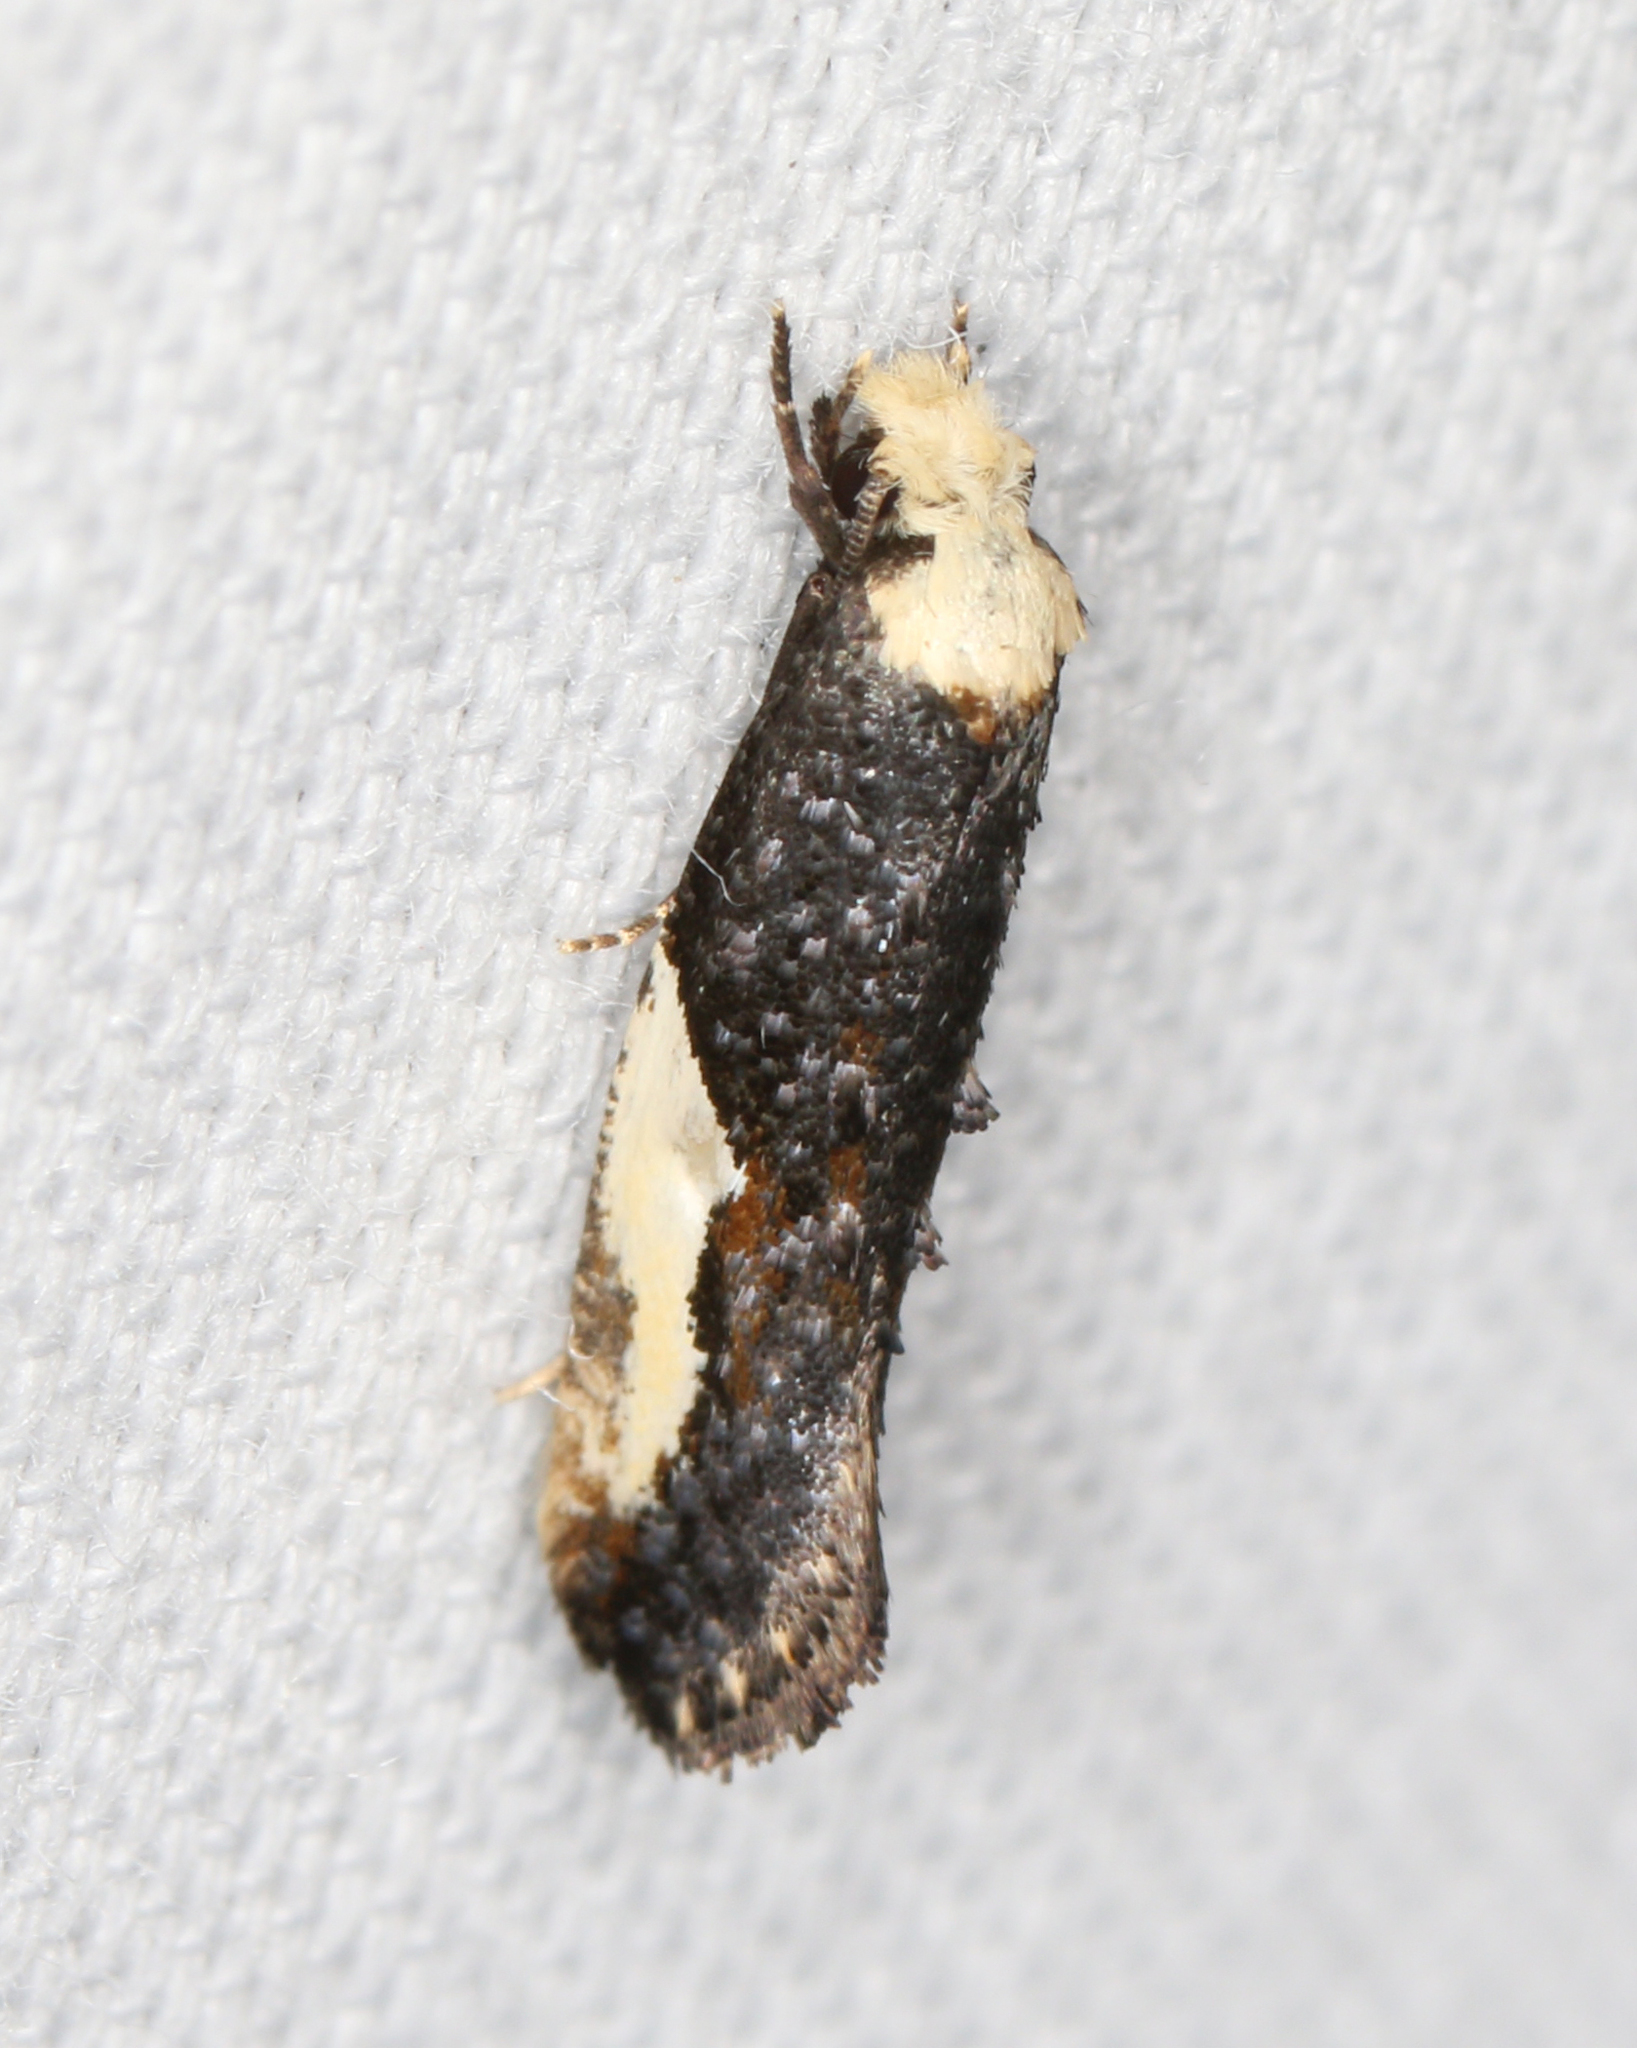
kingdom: Animalia
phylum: Arthropoda
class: Insecta
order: Lepidoptera
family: Tineidae
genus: Monopis
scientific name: Monopis longella
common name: Pavlovski's monopis moth
